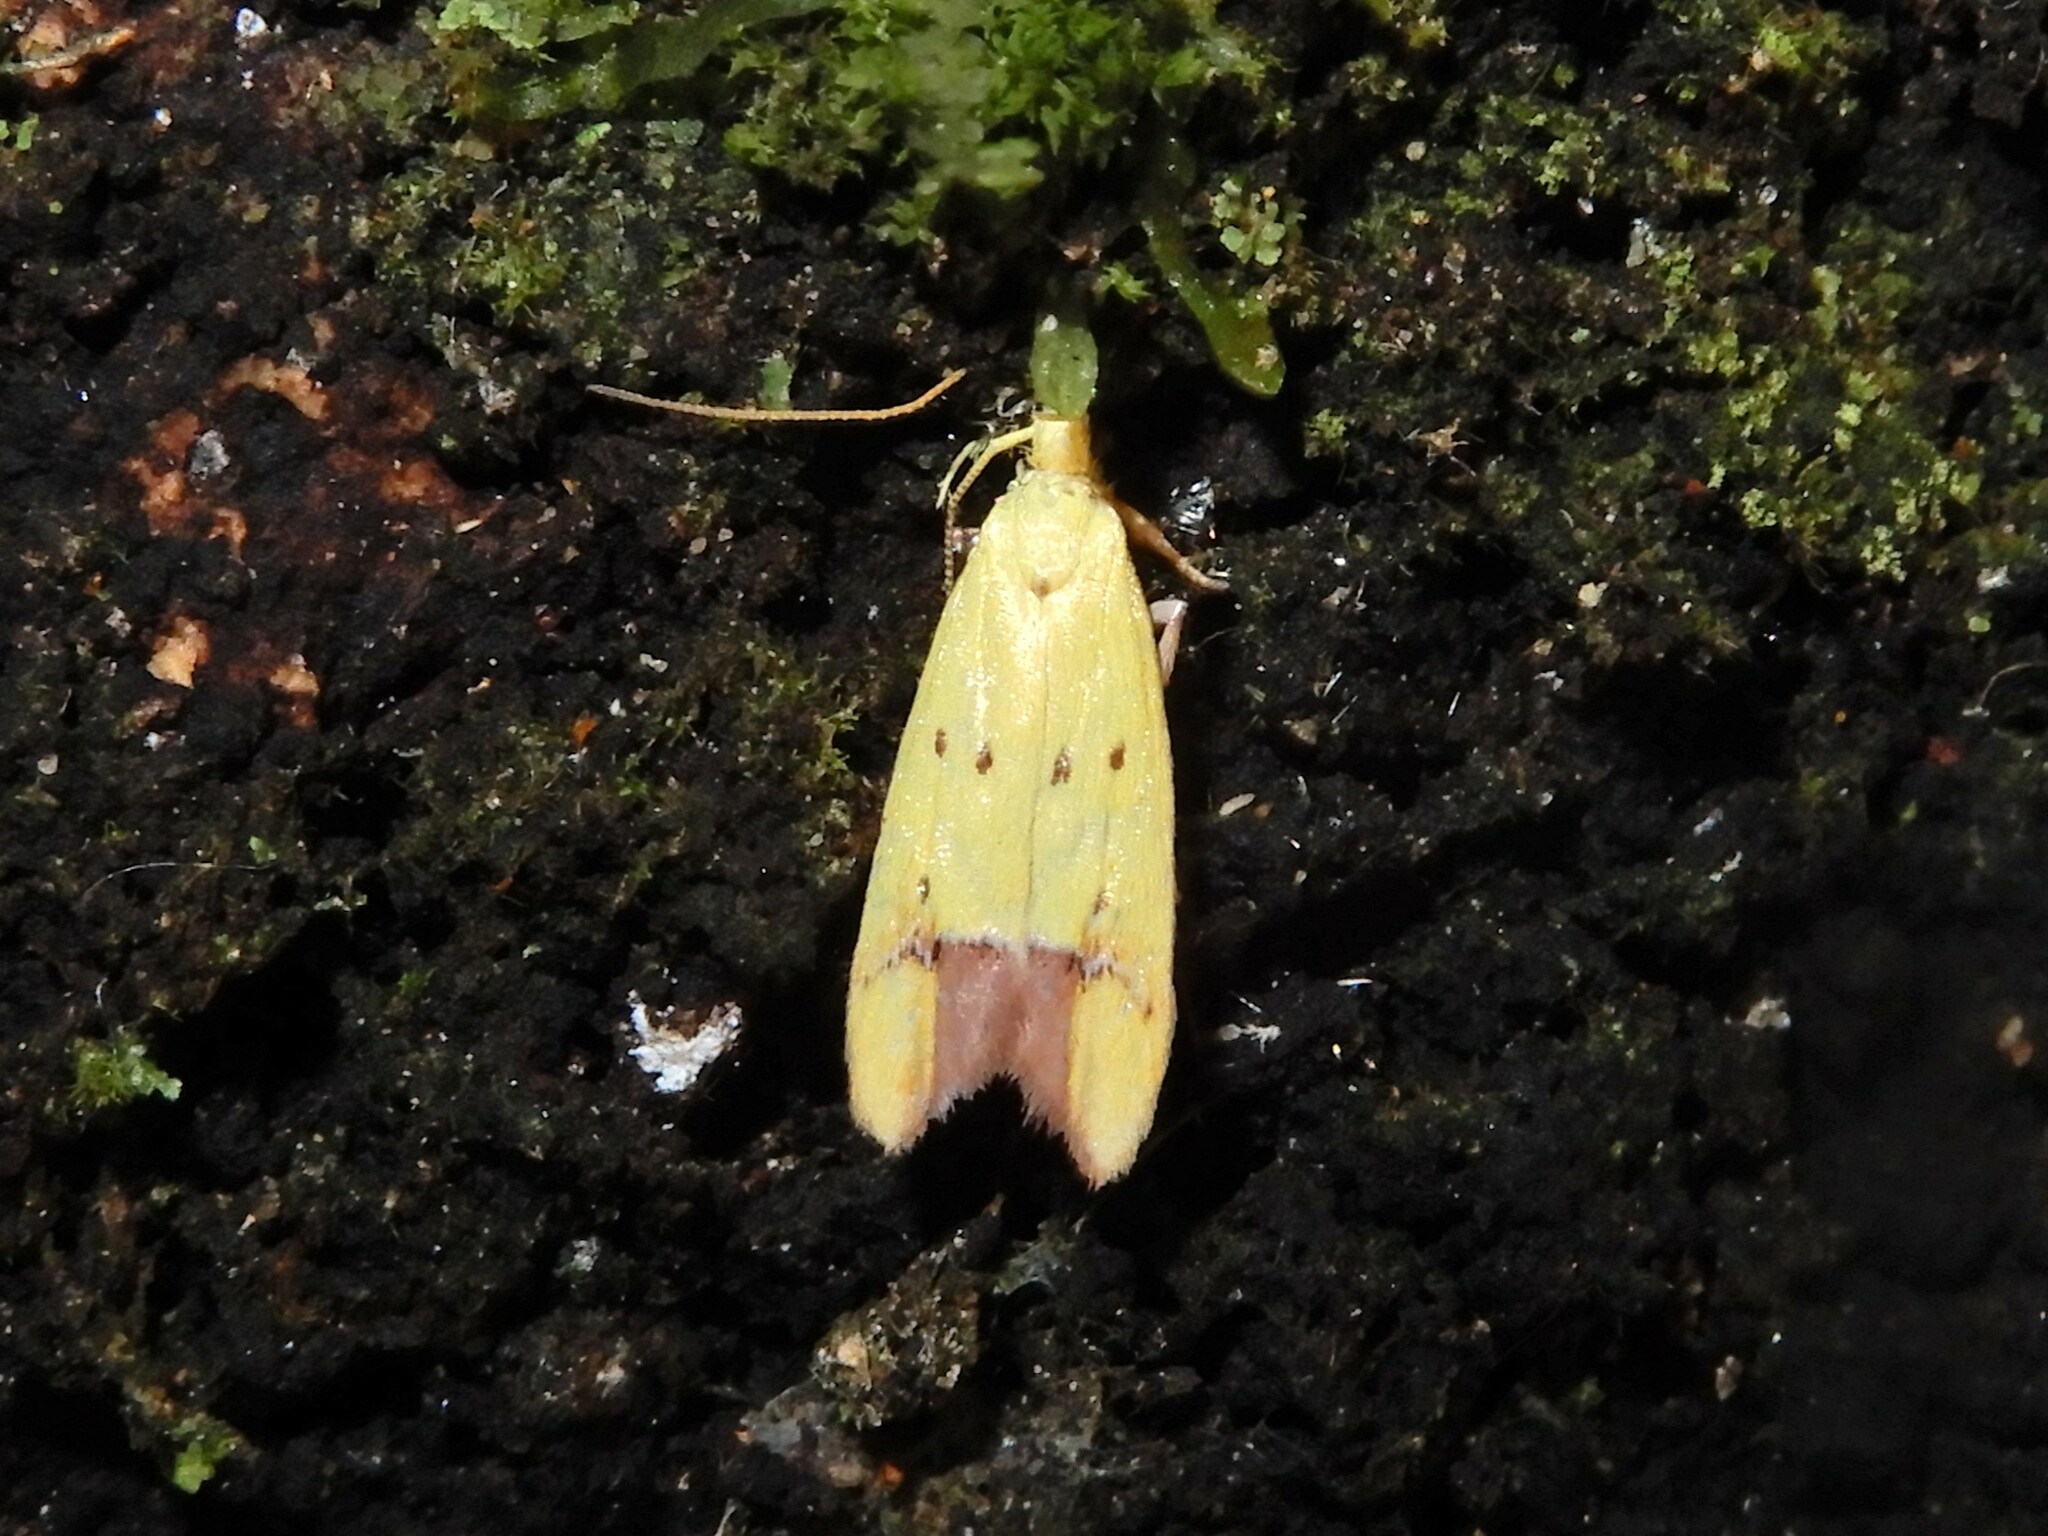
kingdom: Animalia
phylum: Arthropoda
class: Insecta
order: Lepidoptera
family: Oecophoridae
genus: Gymnobathra
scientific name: Gymnobathra flavidella
